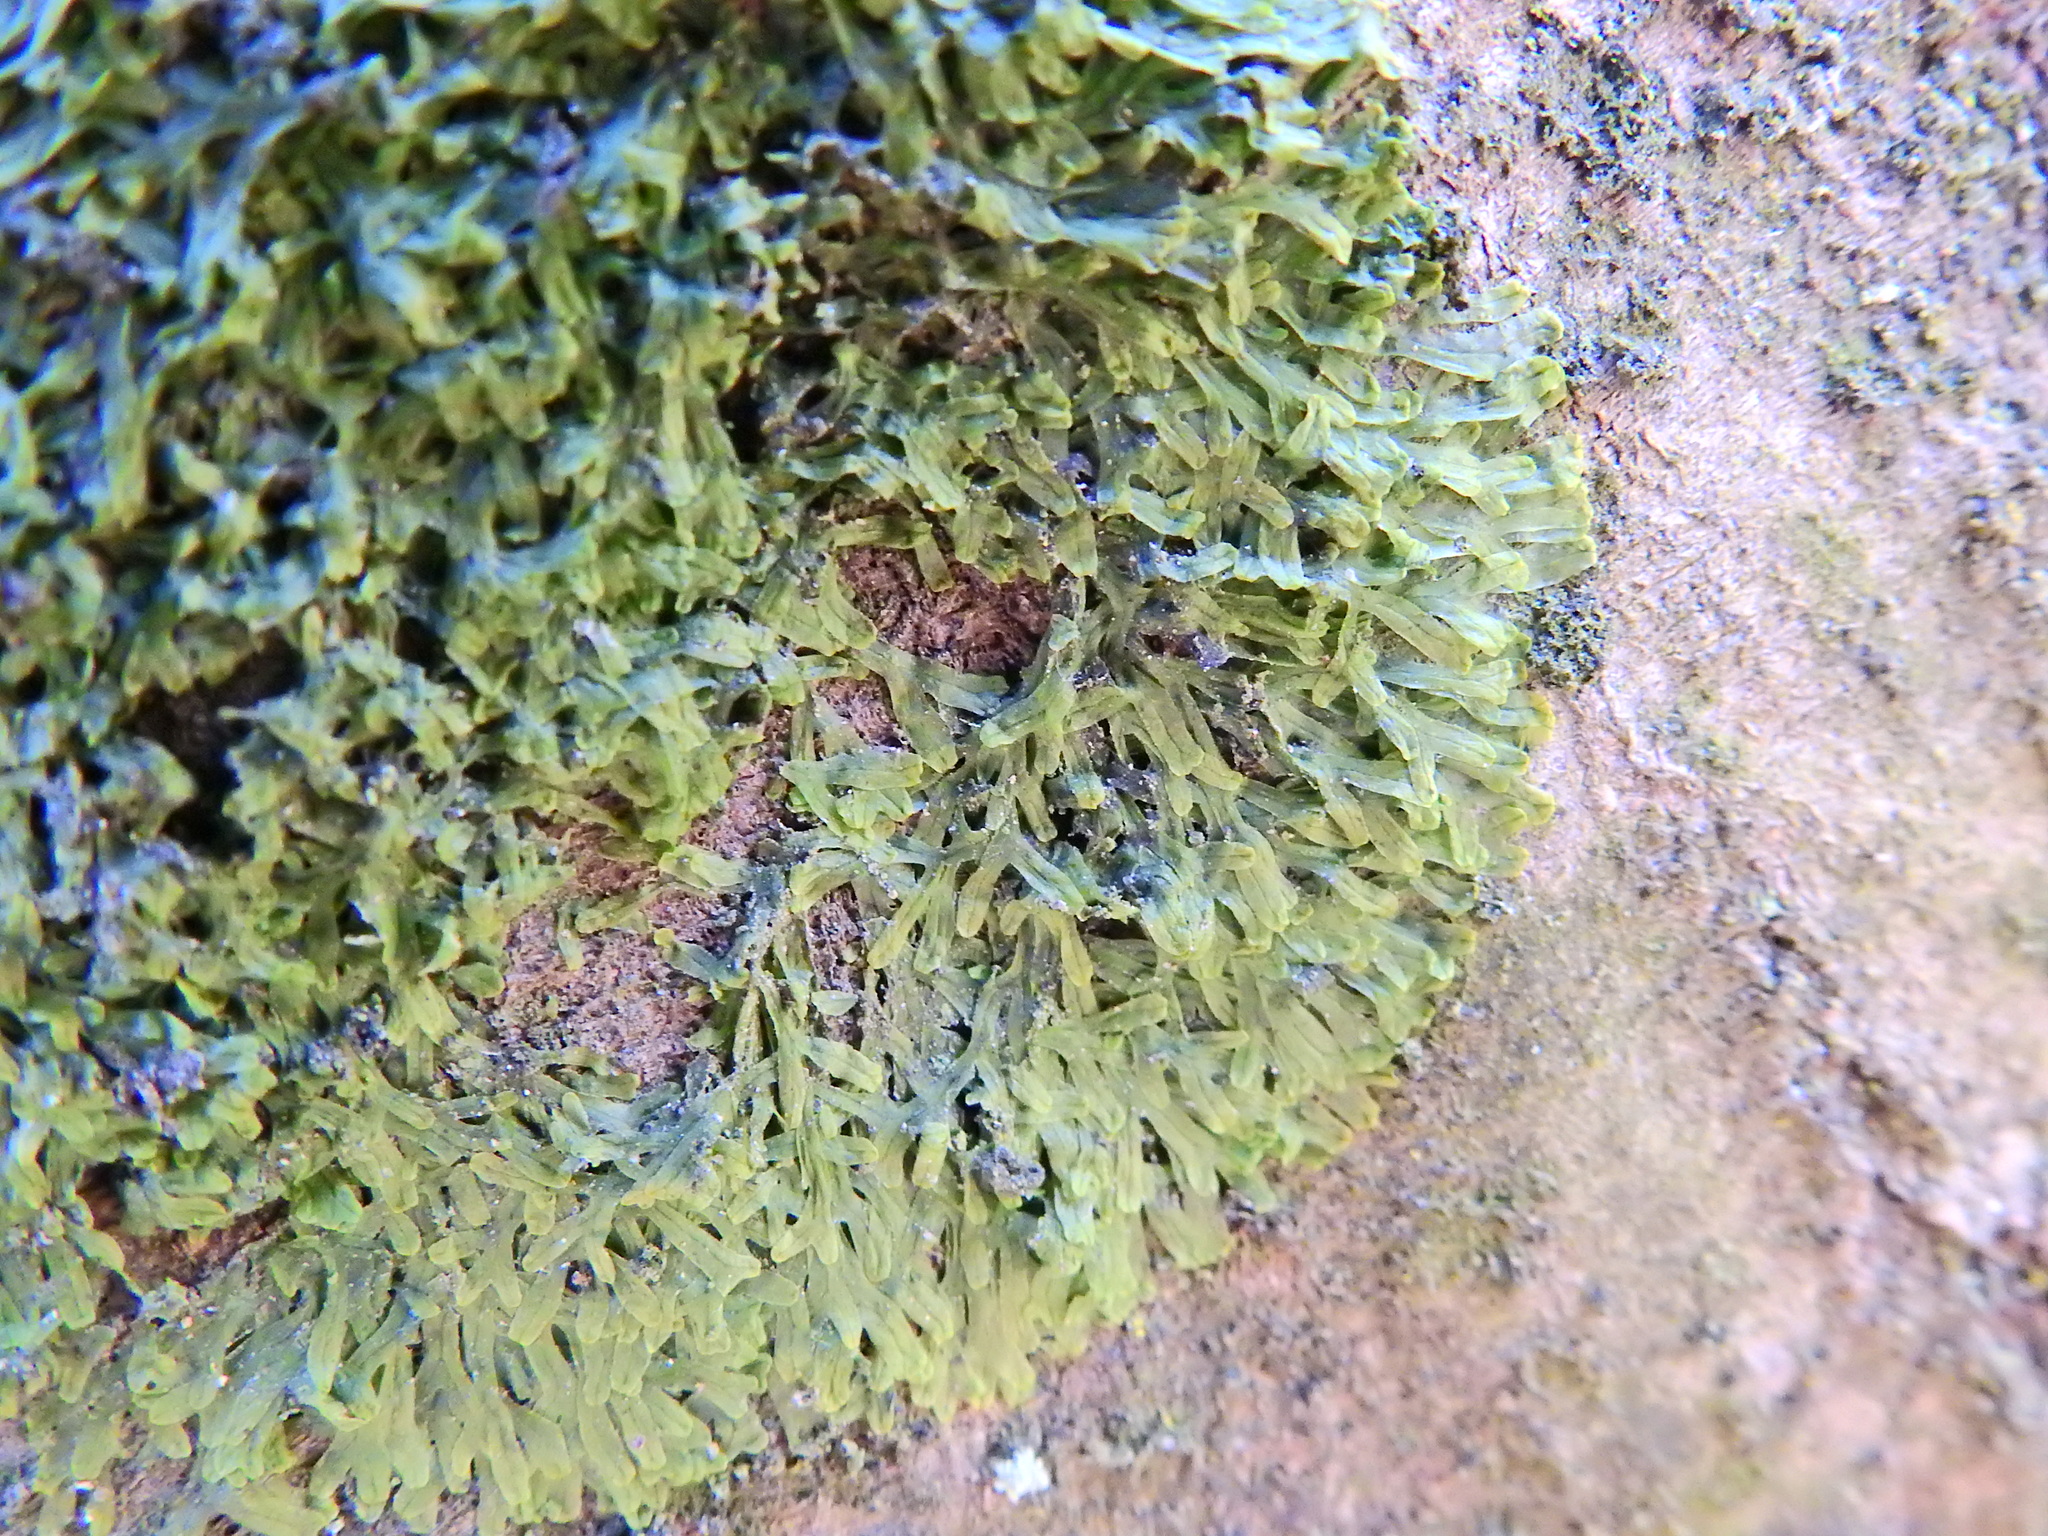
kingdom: Plantae
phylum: Marchantiophyta
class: Jungermanniopsida
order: Metzgeriales
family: Metzgeriaceae
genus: Metzgeria
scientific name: Metzgeria furcata
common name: Forked veilwort
